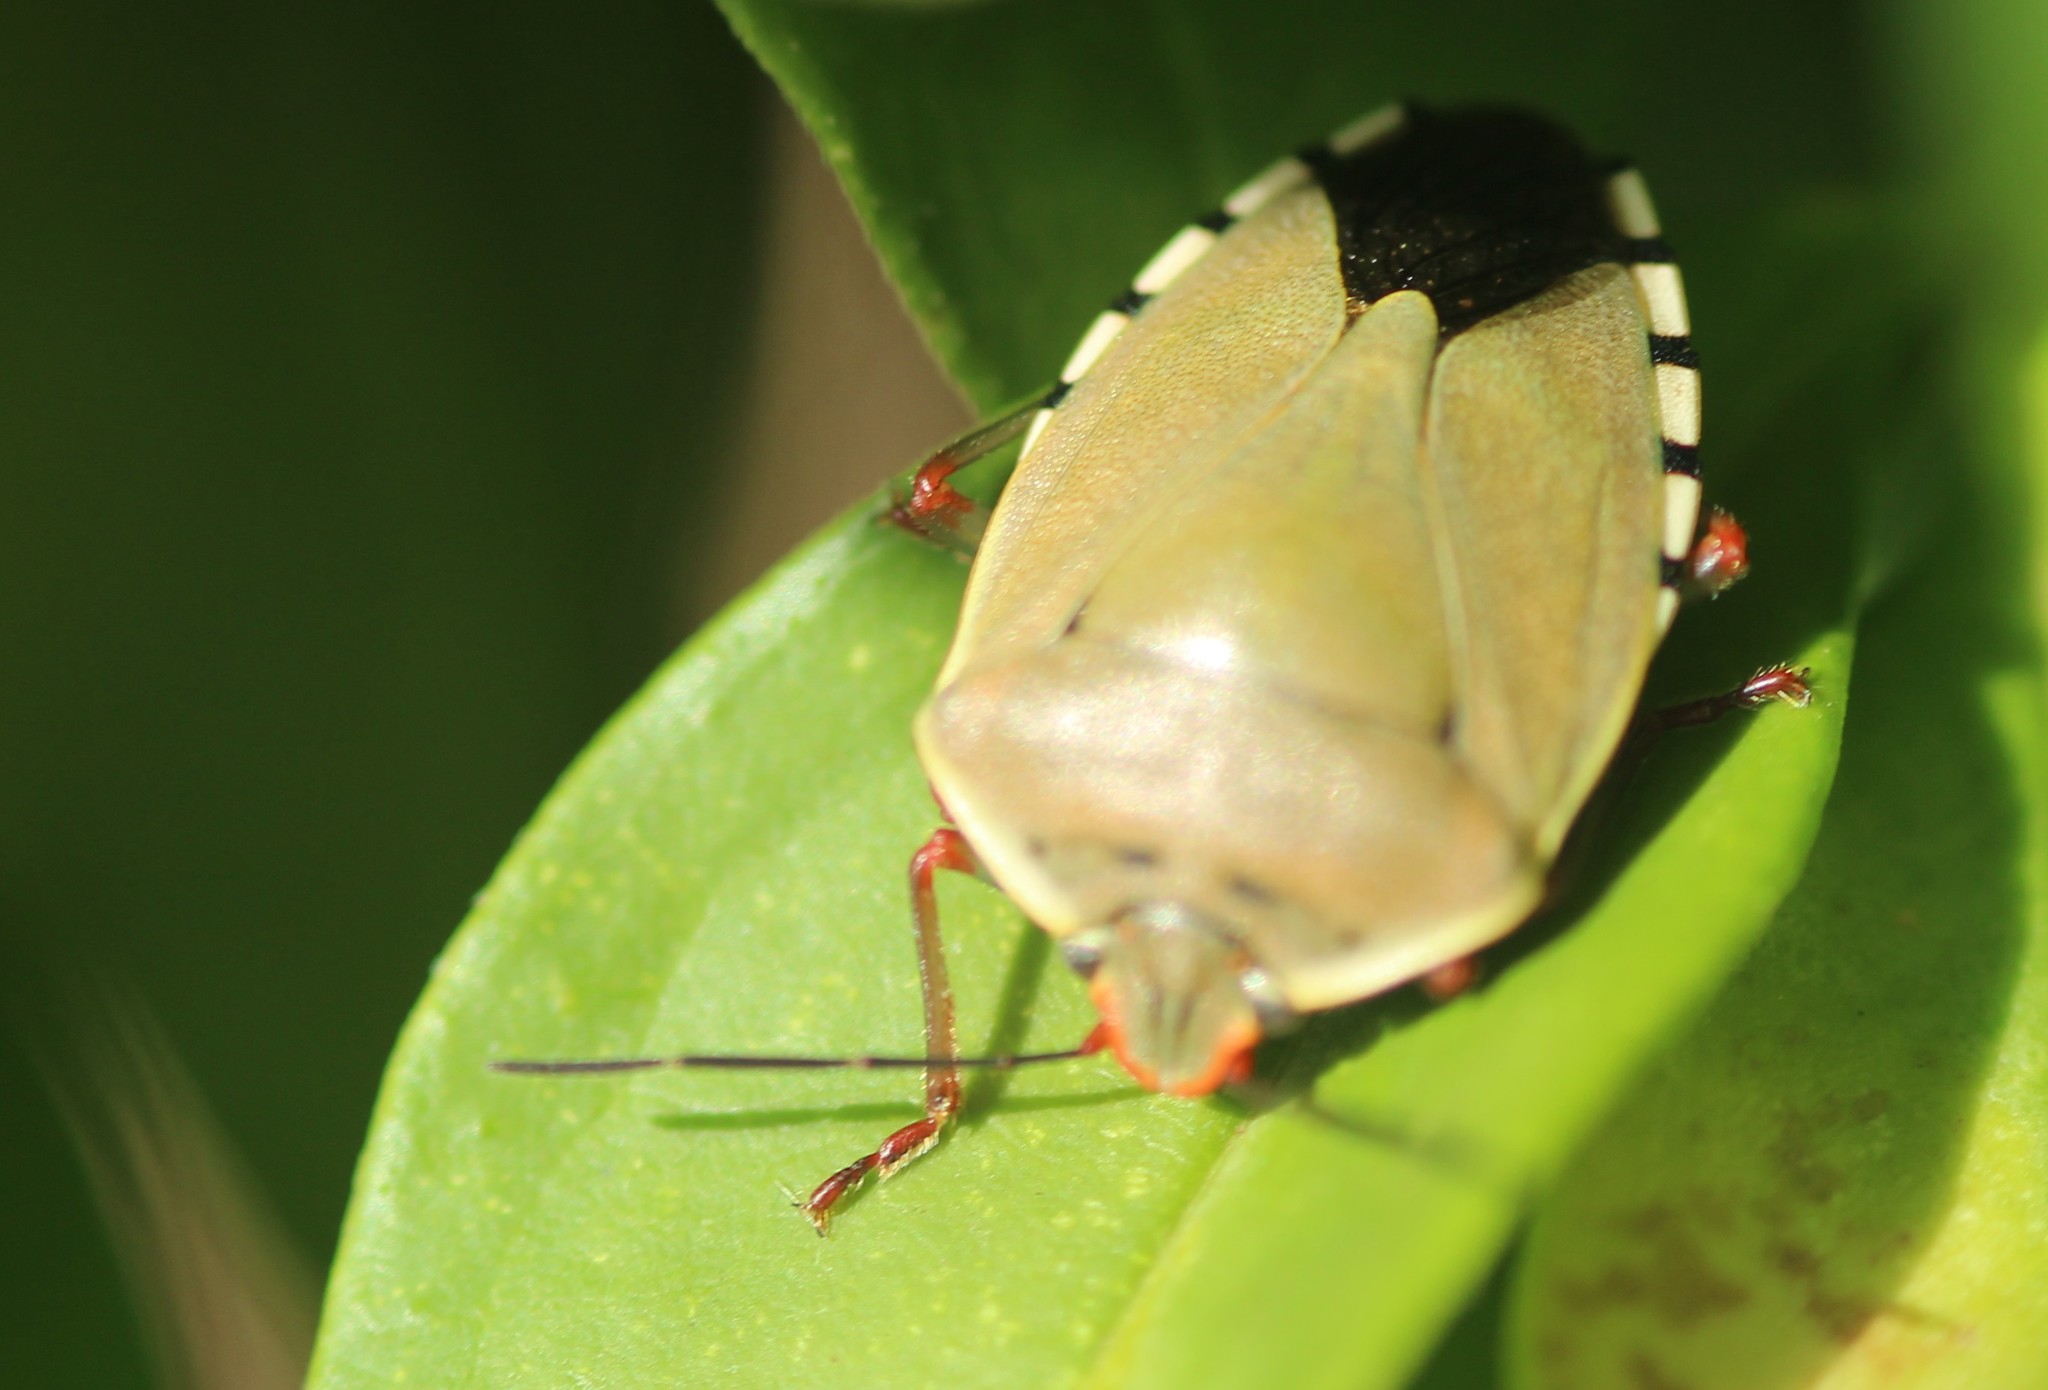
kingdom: Animalia
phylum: Arthropoda
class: Insecta
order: Hemiptera
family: Pentatomidae
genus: Chinavia
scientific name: Chinavia erythrocnemis
